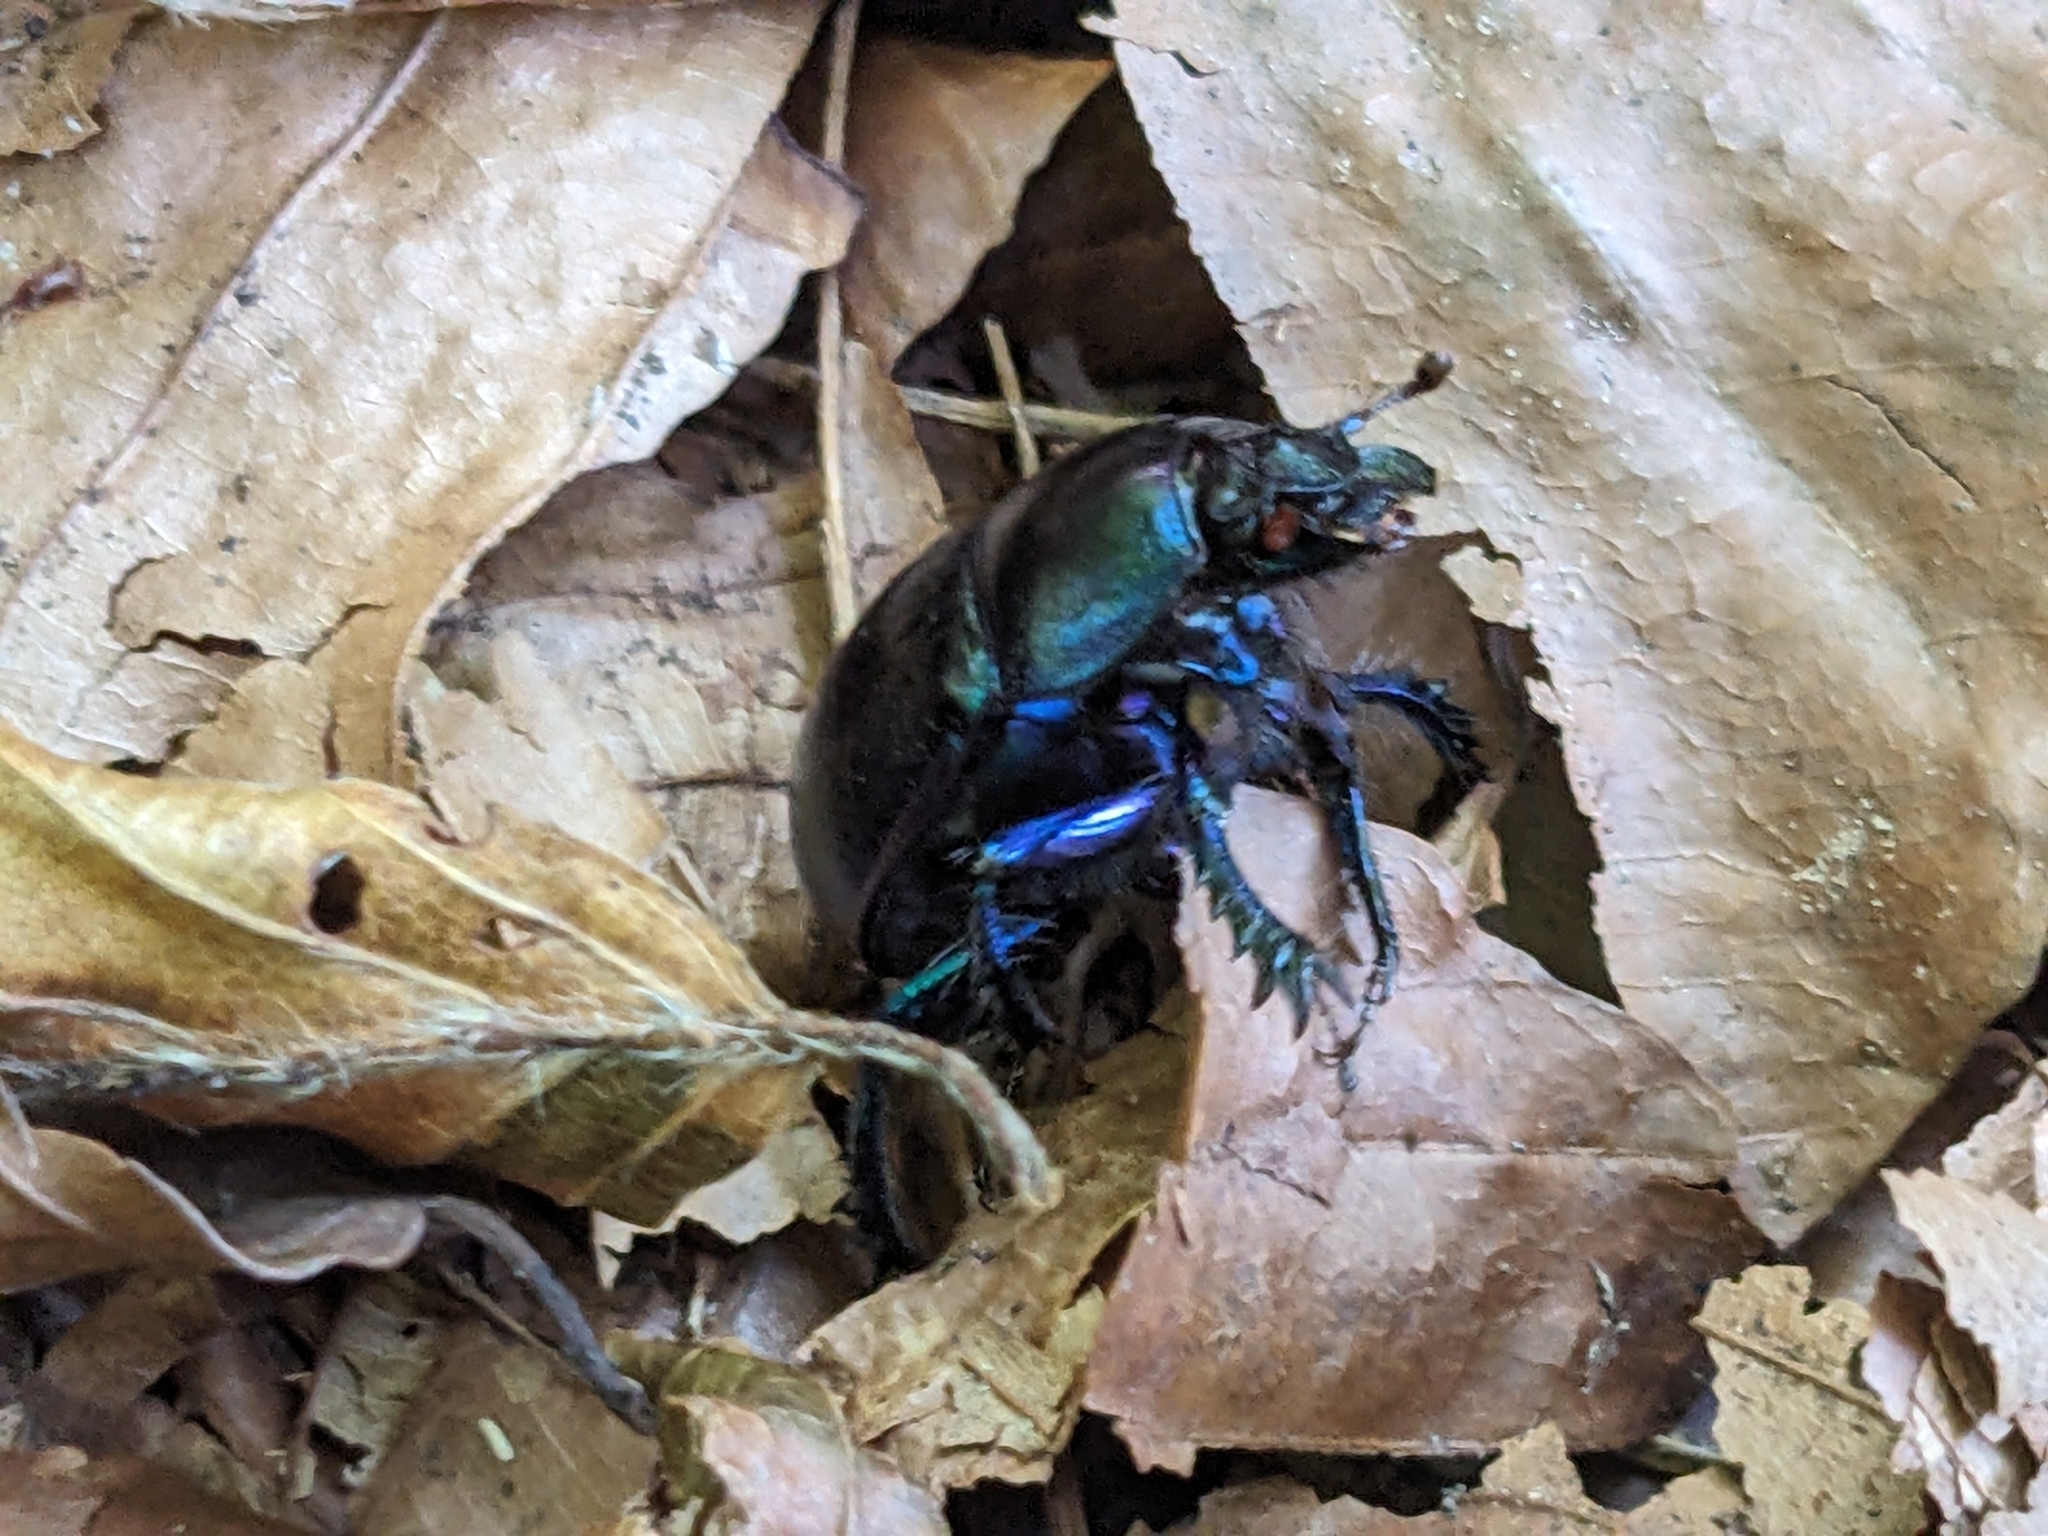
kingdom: Animalia
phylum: Arthropoda
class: Insecta
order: Coleoptera
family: Geotrupidae
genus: Anoplotrupes
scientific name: Anoplotrupes stercorosus
